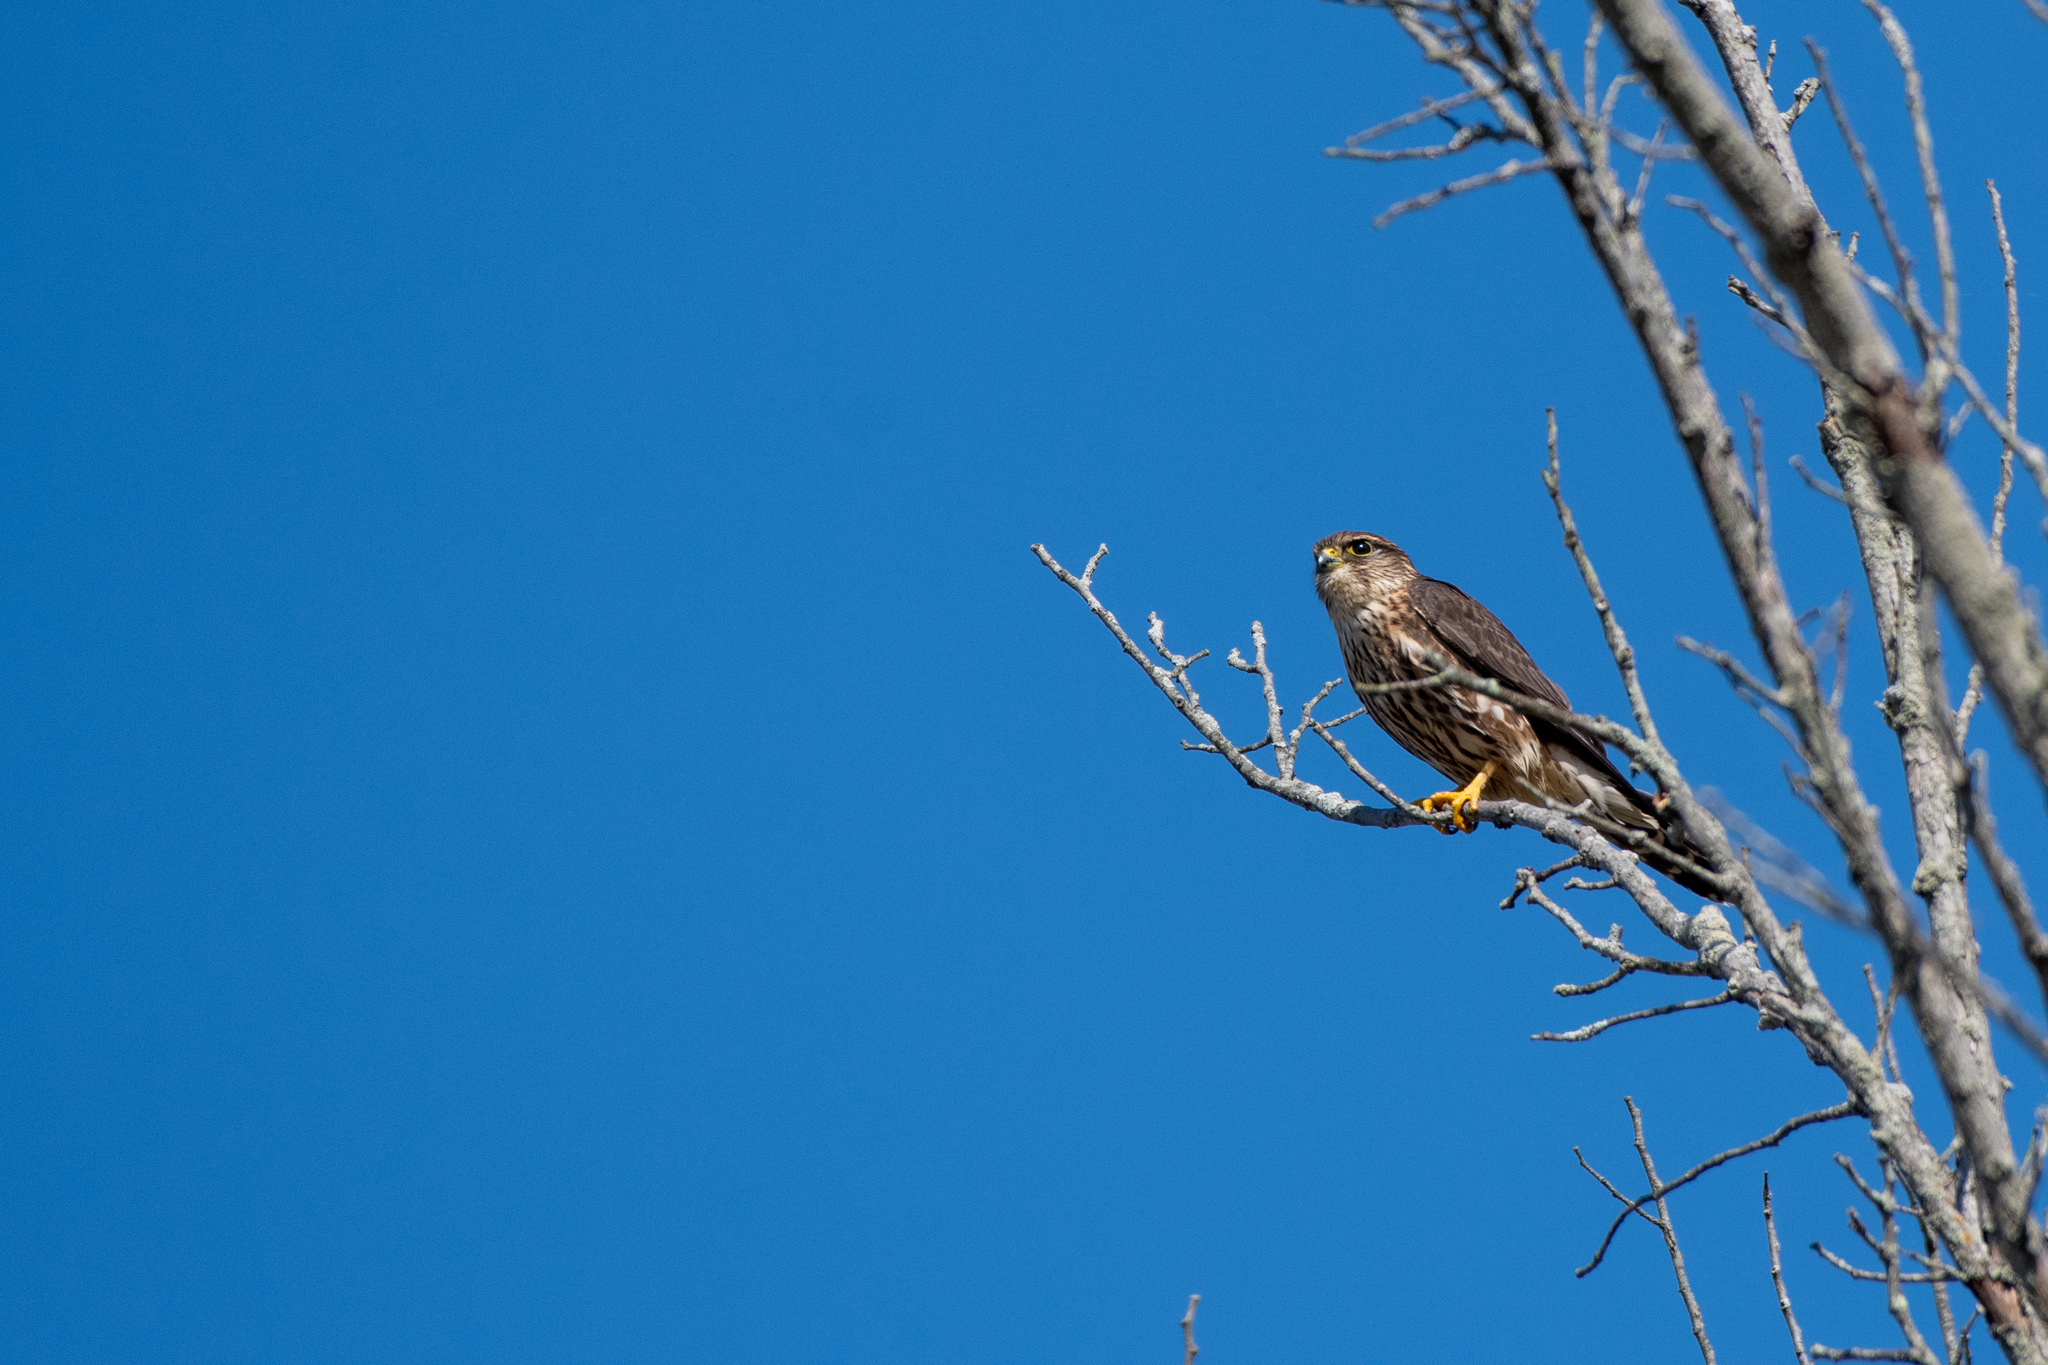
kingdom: Animalia
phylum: Chordata
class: Aves
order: Falconiformes
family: Falconidae
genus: Falco
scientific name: Falco columbarius
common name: Merlin
